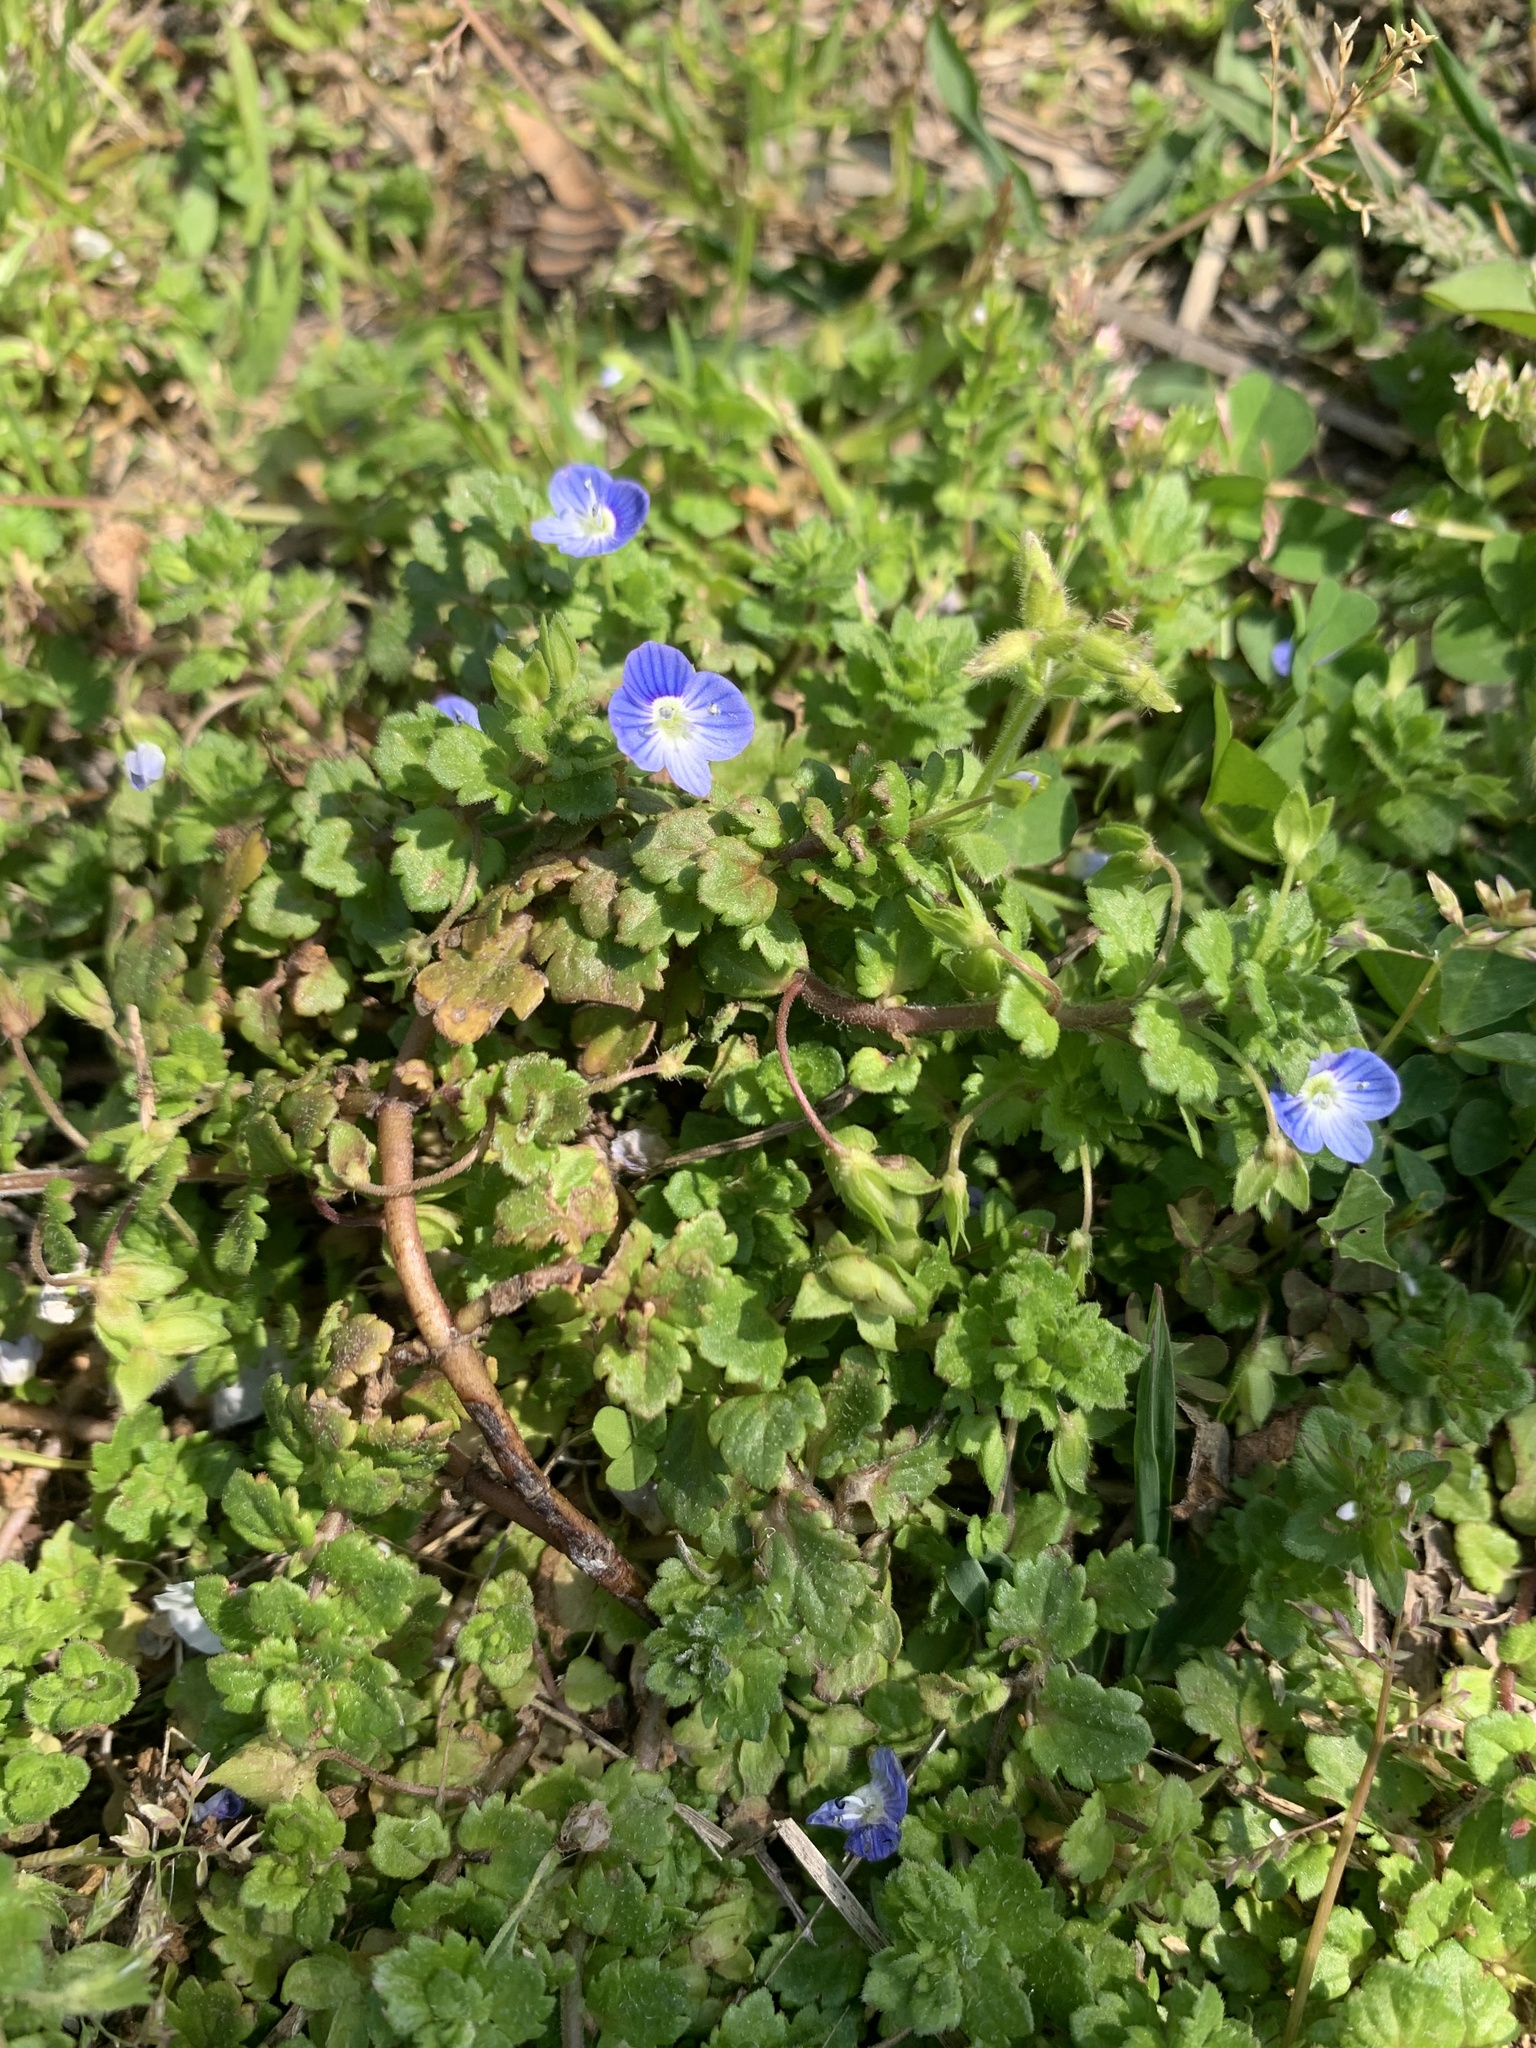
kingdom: Plantae
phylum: Tracheophyta
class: Magnoliopsida
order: Lamiales
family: Plantaginaceae
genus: Veronica
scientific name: Veronica persica
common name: Common field-speedwell
